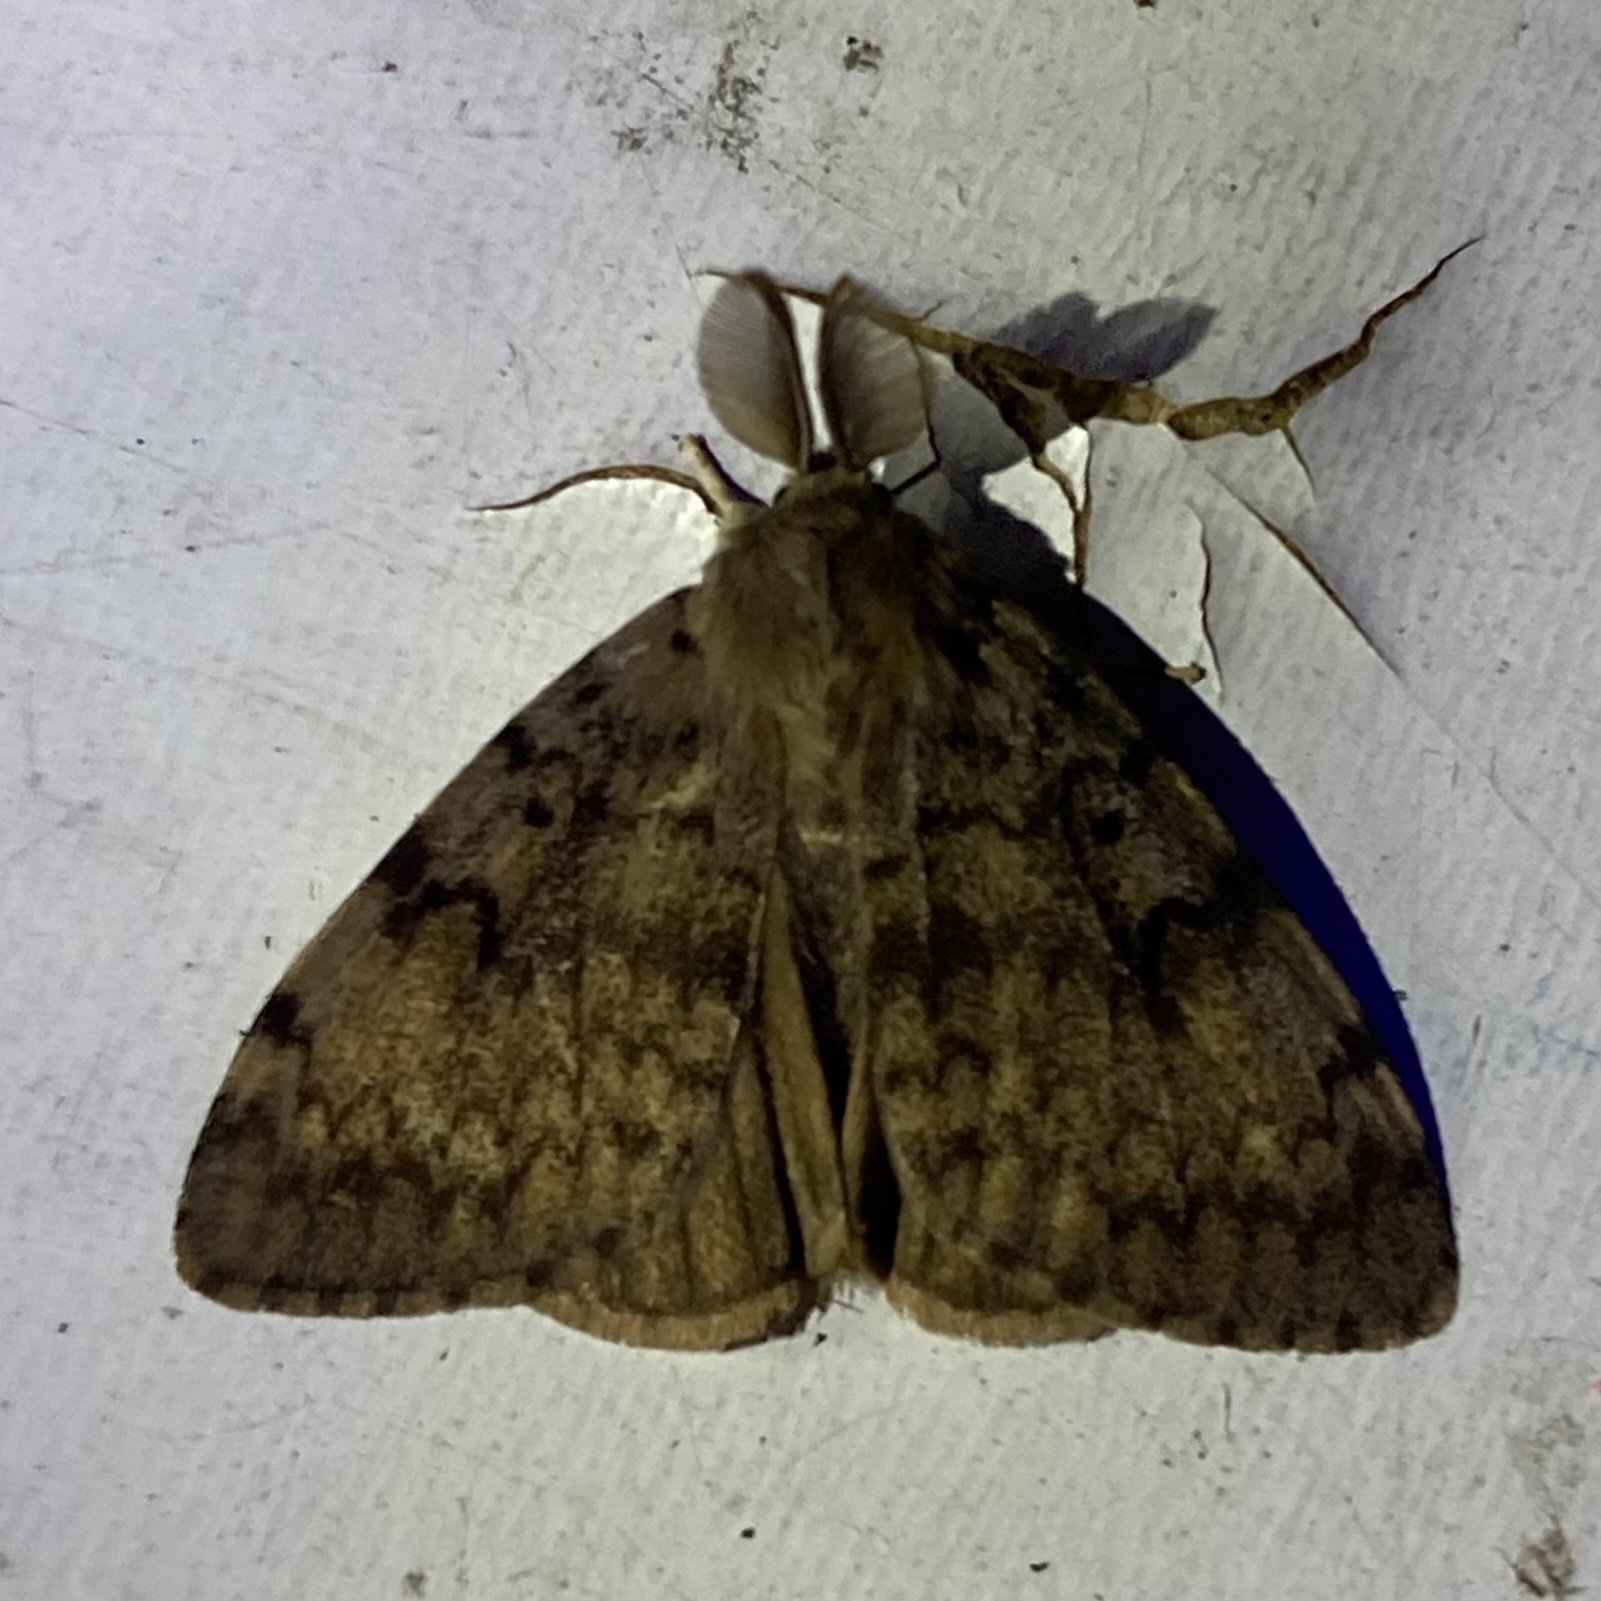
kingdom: Animalia
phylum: Arthropoda
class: Insecta
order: Lepidoptera
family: Erebidae
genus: Lymantria
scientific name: Lymantria dispar
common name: Gypsy moth
